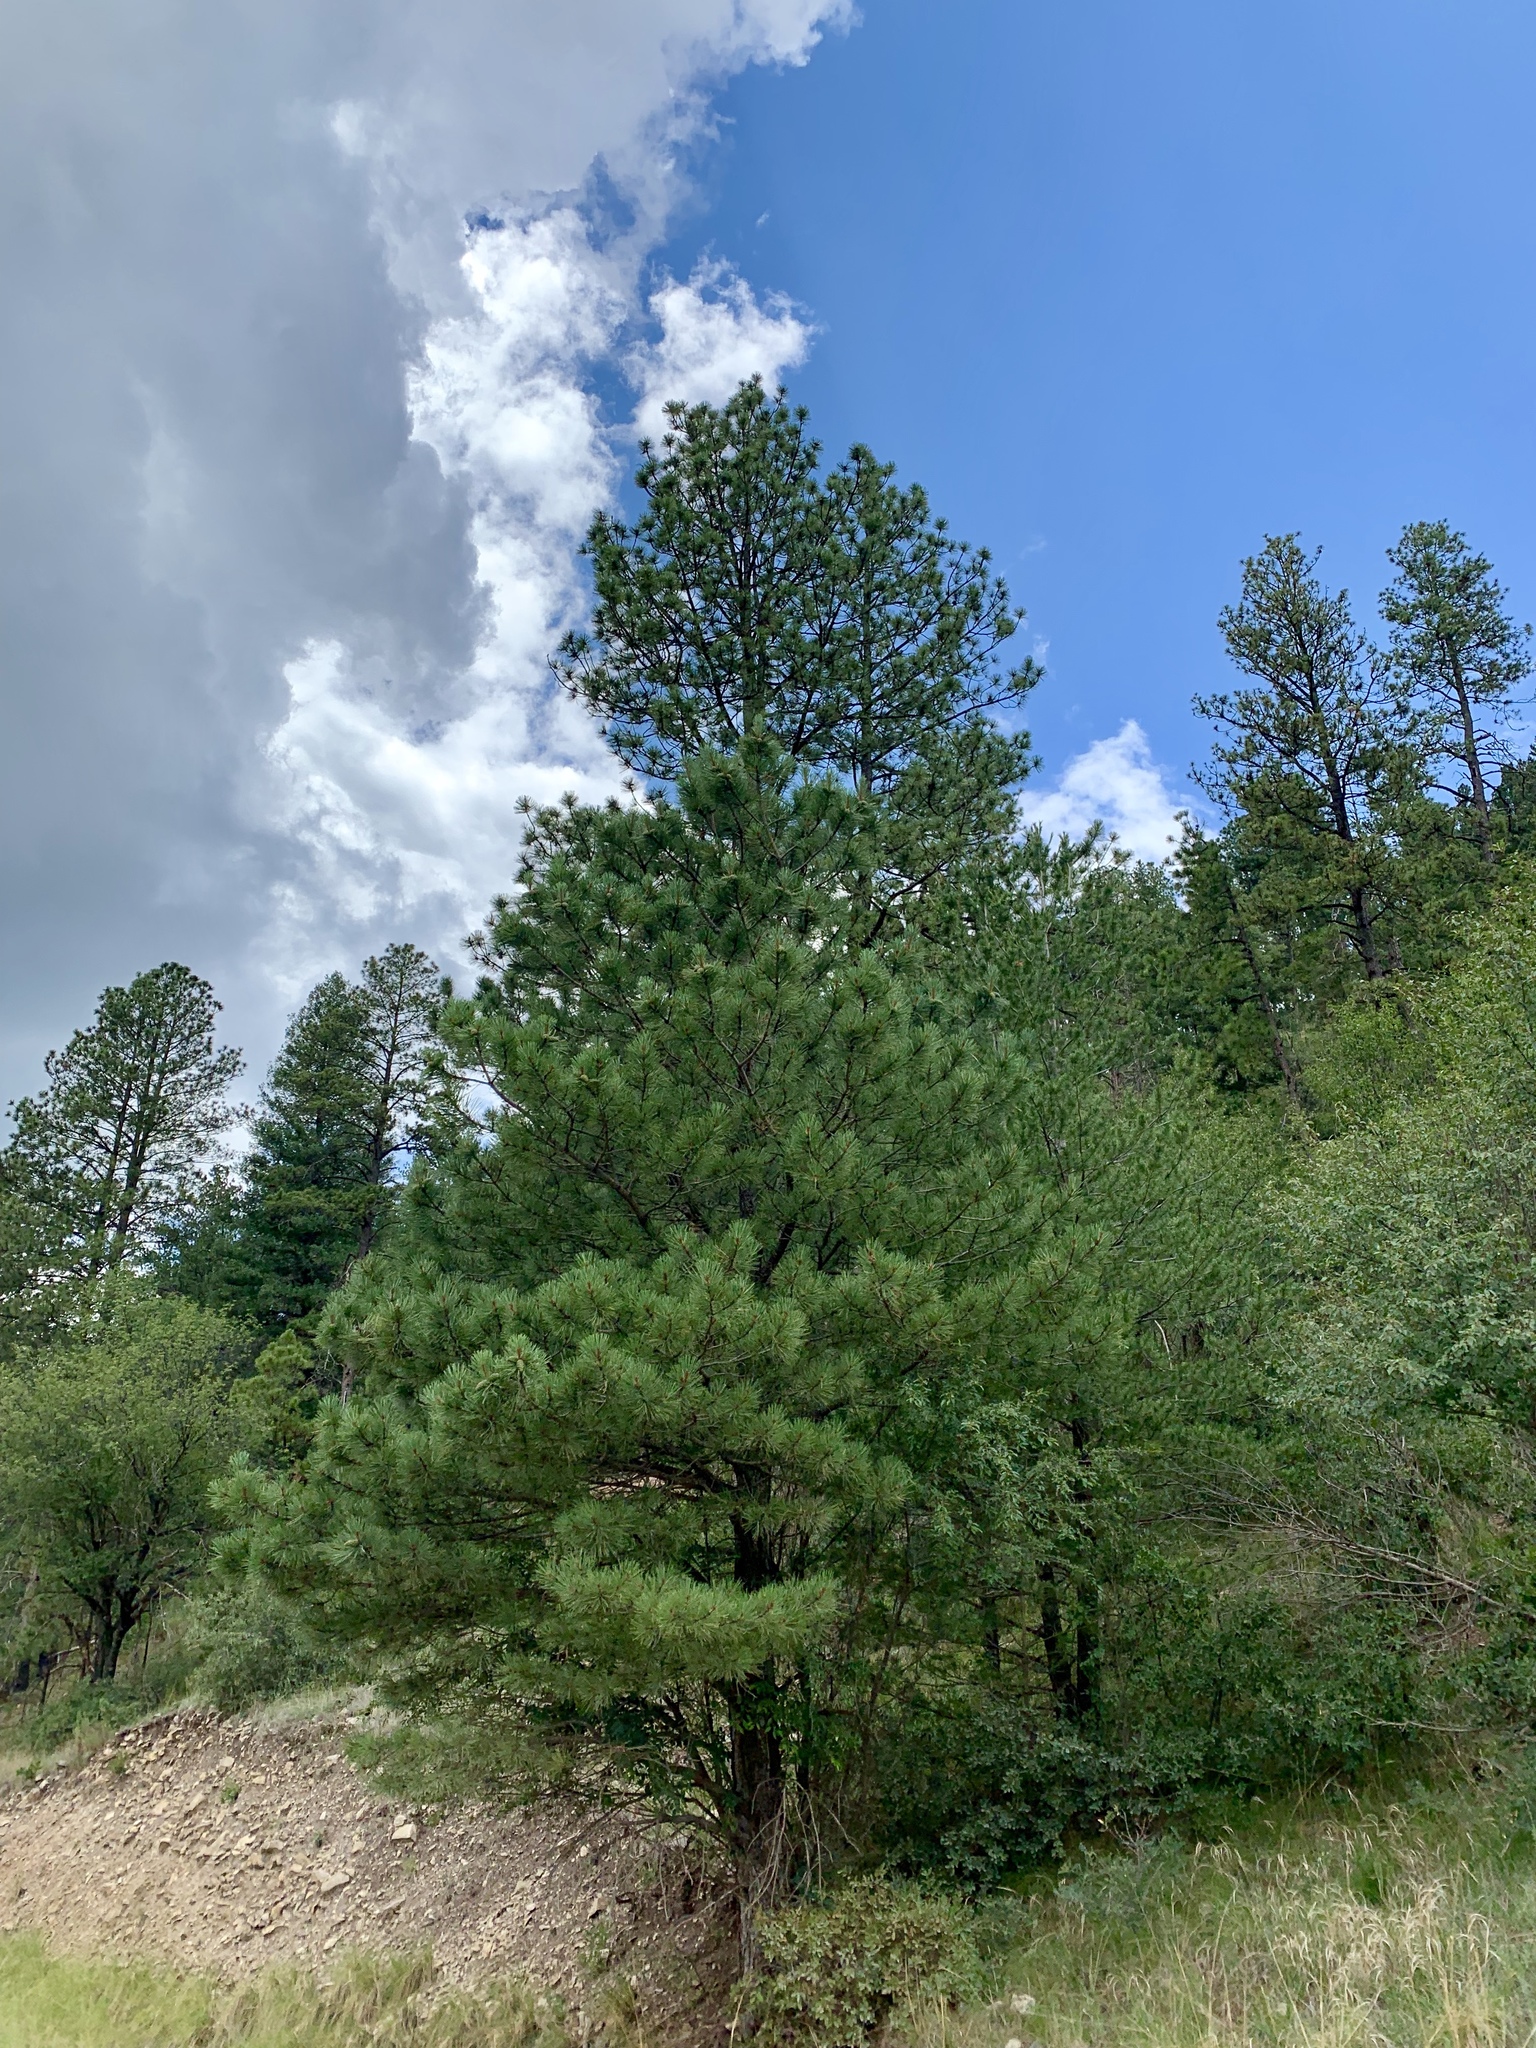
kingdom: Plantae
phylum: Tracheophyta
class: Pinopsida
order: Pinales
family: Pinaceae
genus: Pinus
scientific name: Pinus ponderosa
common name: Western yellow-pine
